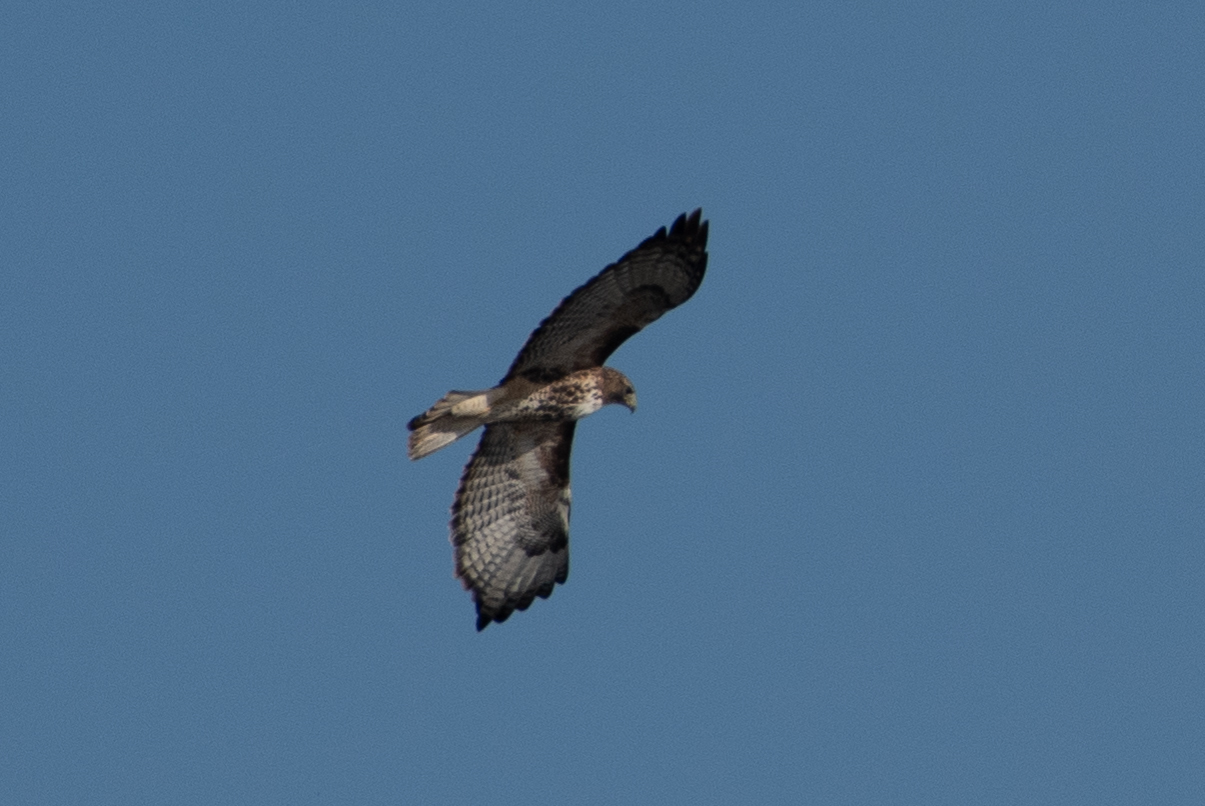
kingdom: Animalia
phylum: Chordata
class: Aves
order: Accipitriformes
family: Accipitridae
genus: Buteo
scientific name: Buteo jamaicensis
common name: Red-tailed hawk
